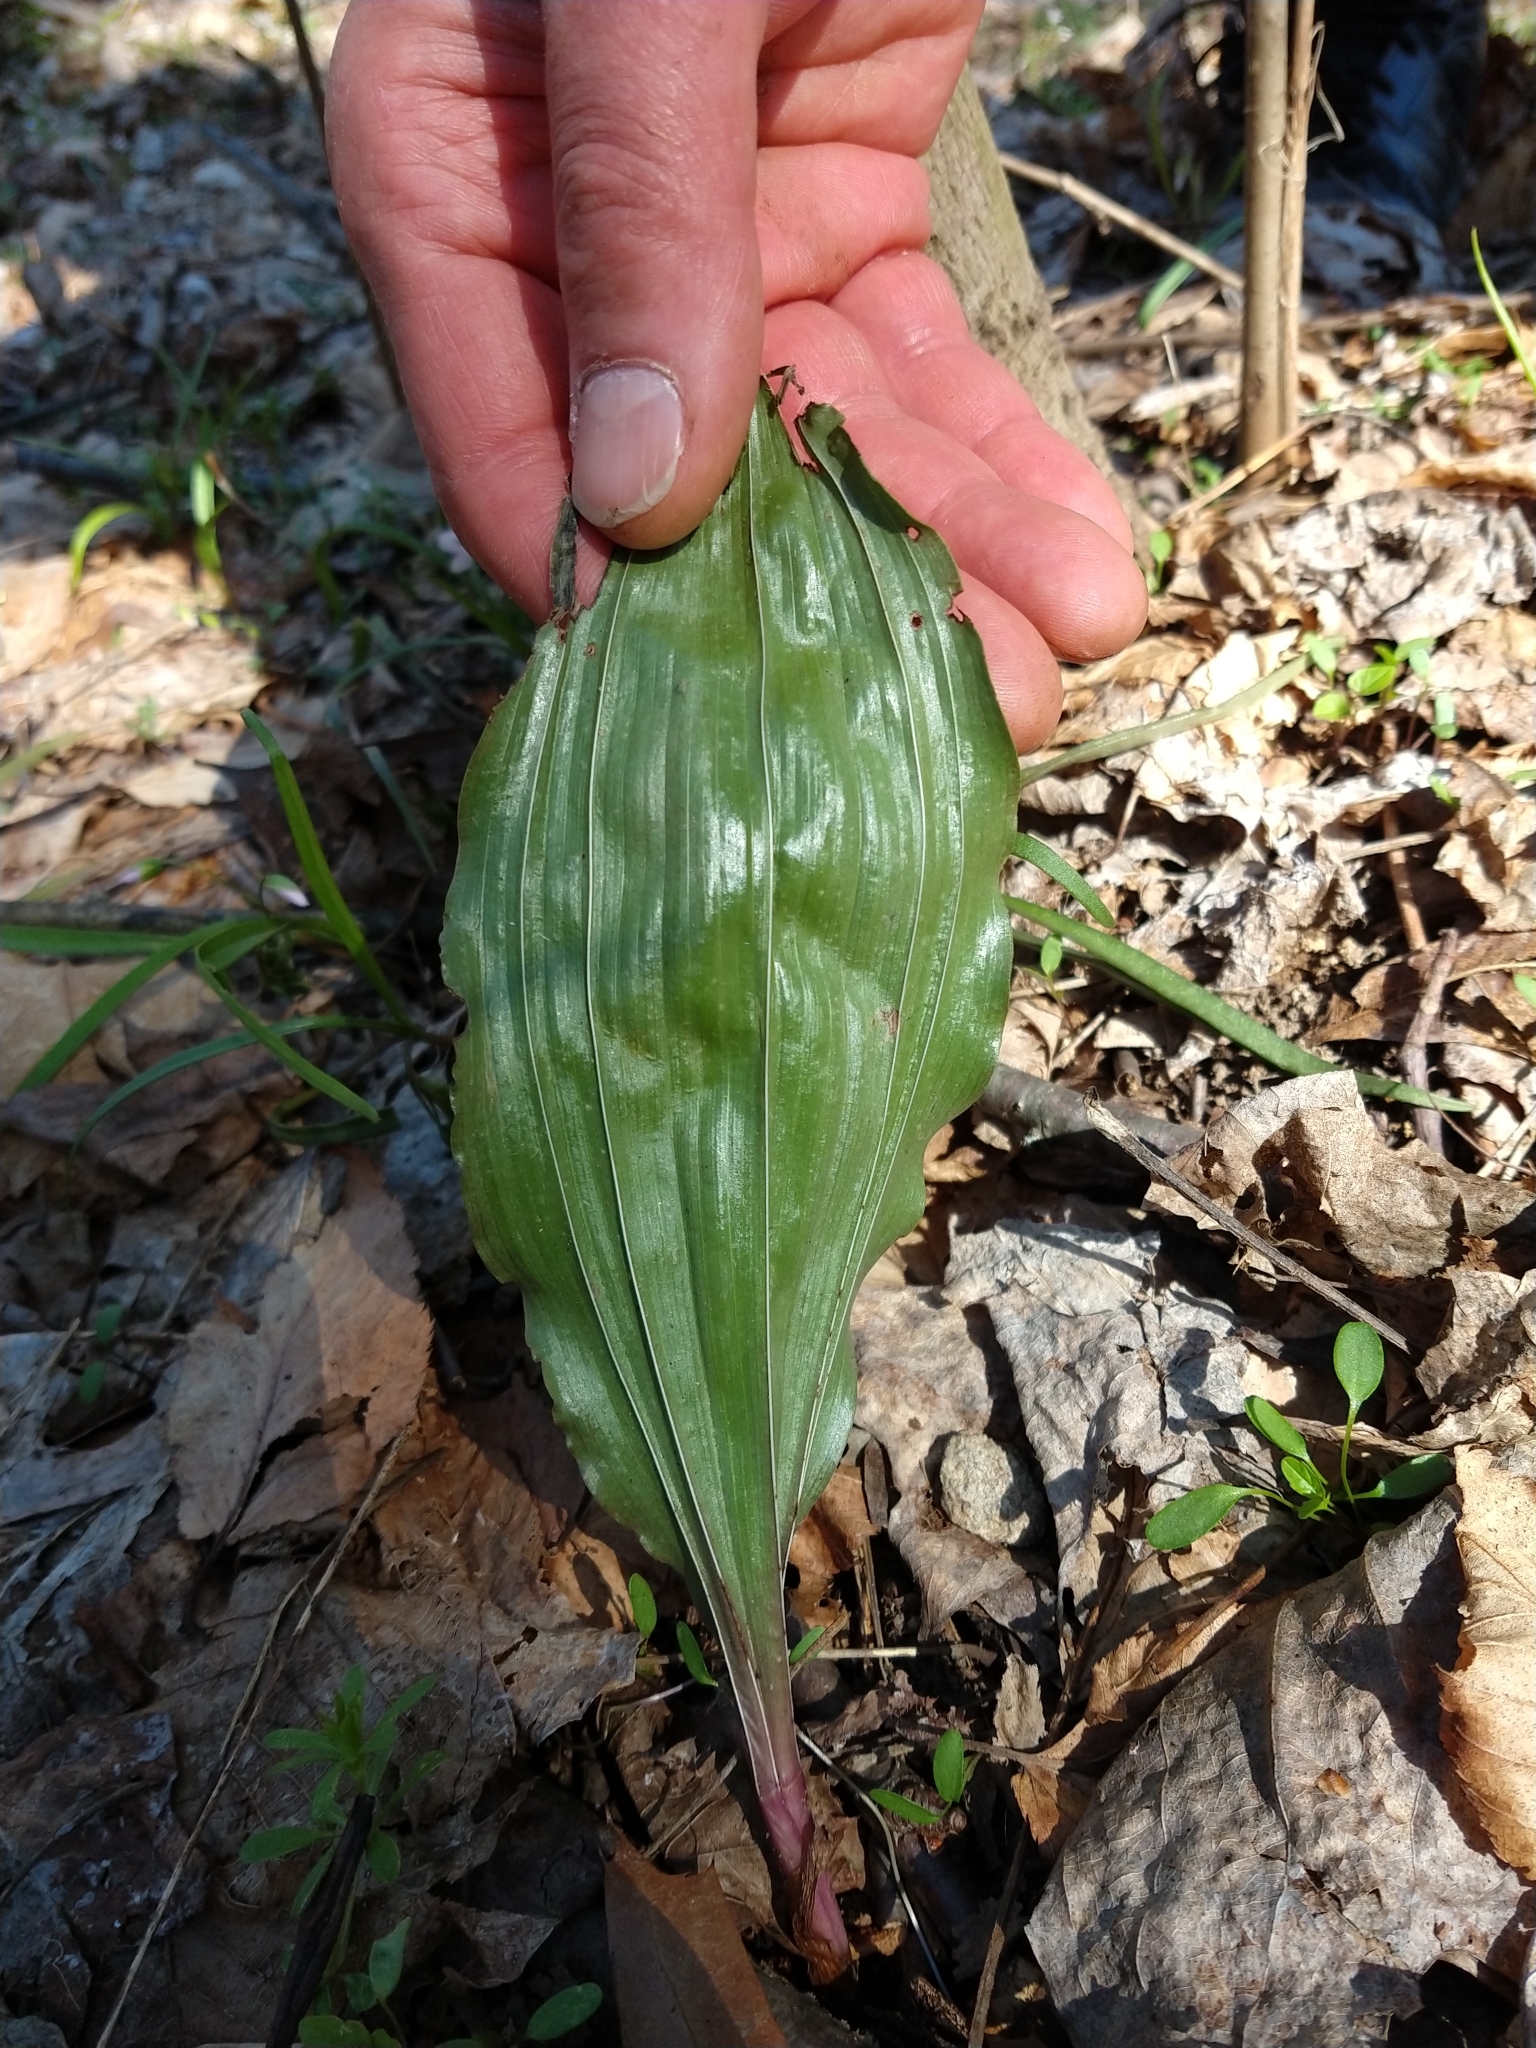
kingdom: Plantae
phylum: Tracheophyta
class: Liliopsida
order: Asparagales
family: Orchidaceae
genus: Aplectrum
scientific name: Aplectrum hyemale
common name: Adam-and-eve
